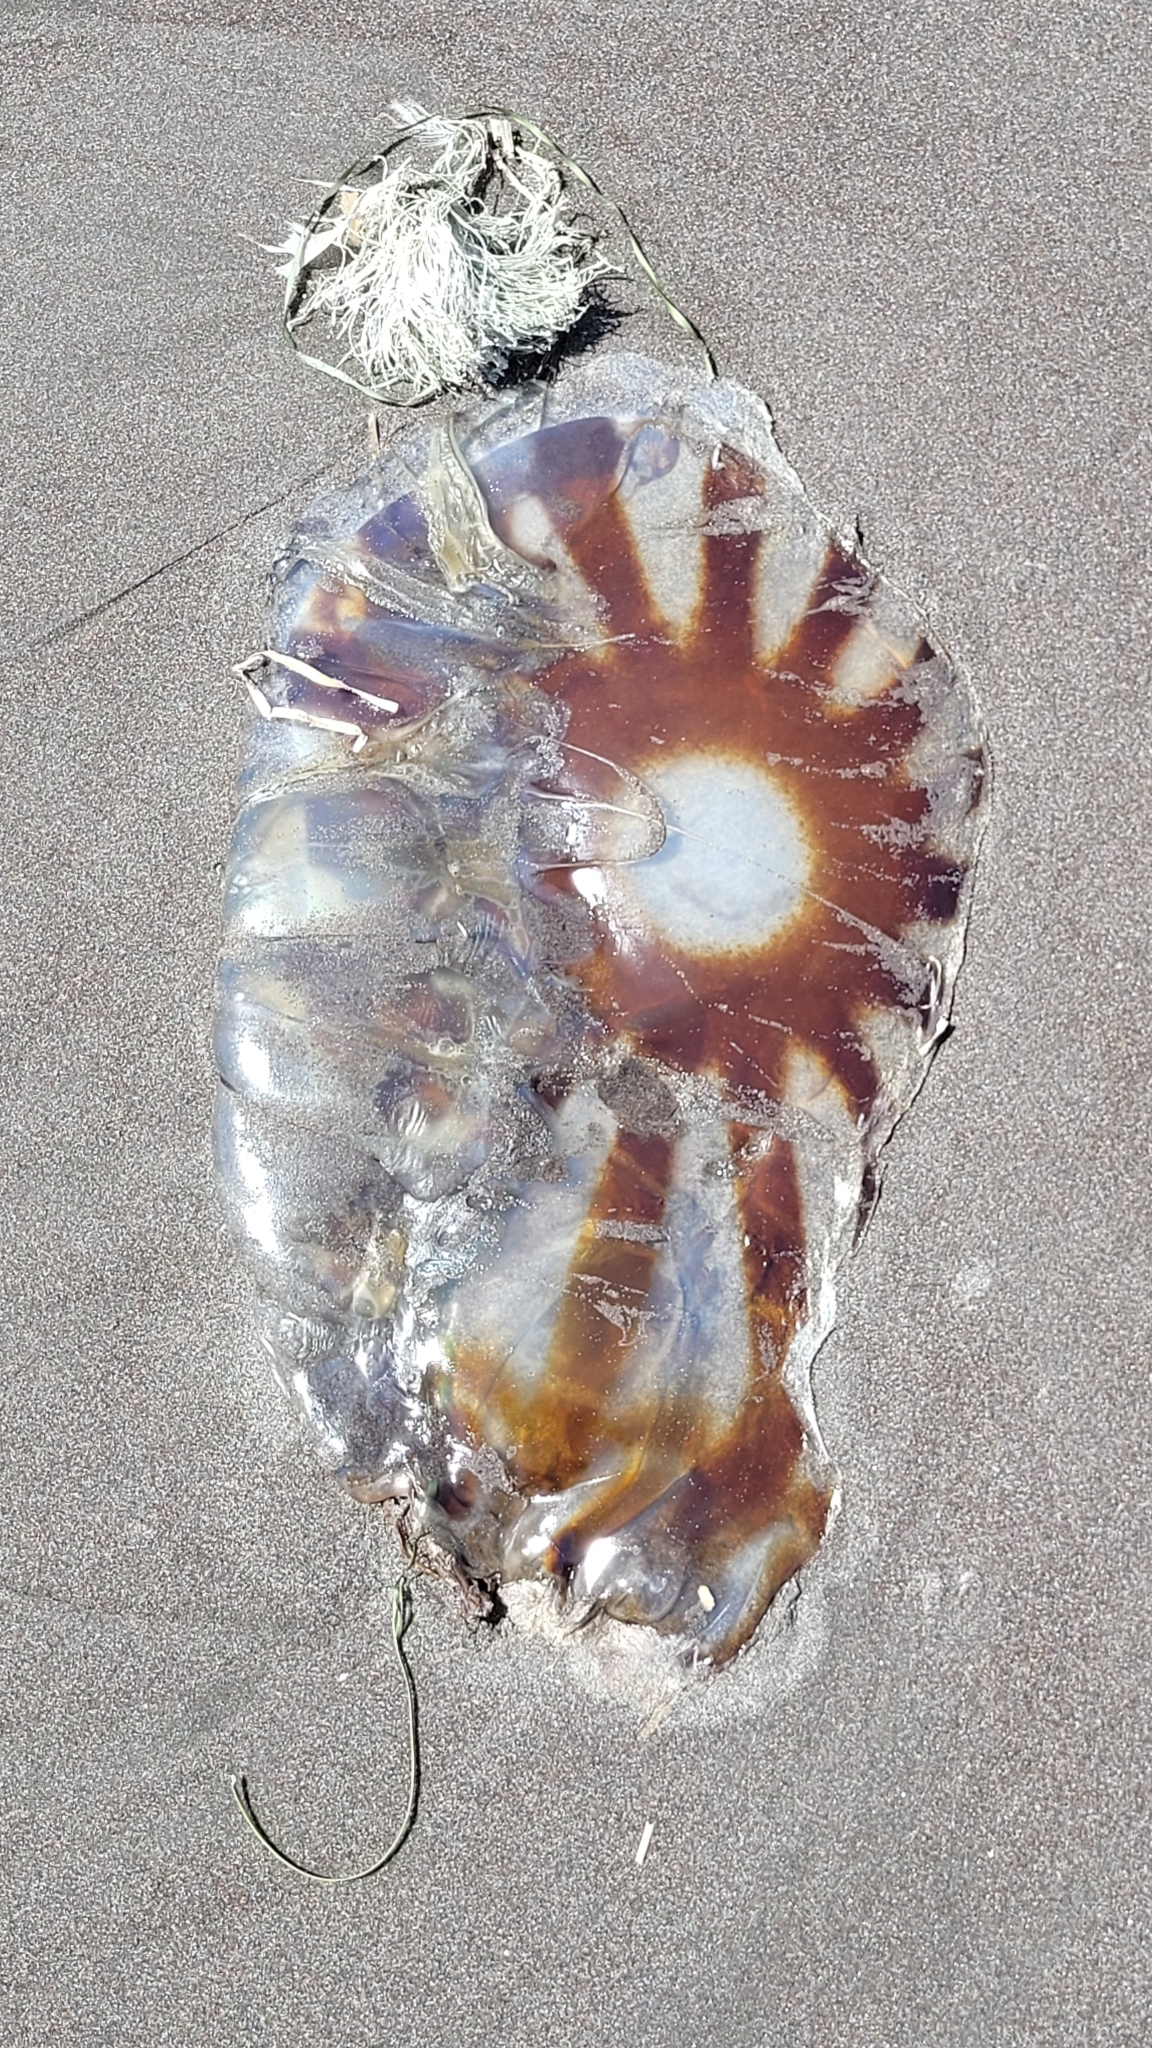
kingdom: Animalia
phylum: Cnidaria
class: Scyphozoa
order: Semaeostomeae
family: Pelagiidae
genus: Chrysaora
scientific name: Chrysaora melanaster
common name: Northern sea nettle
